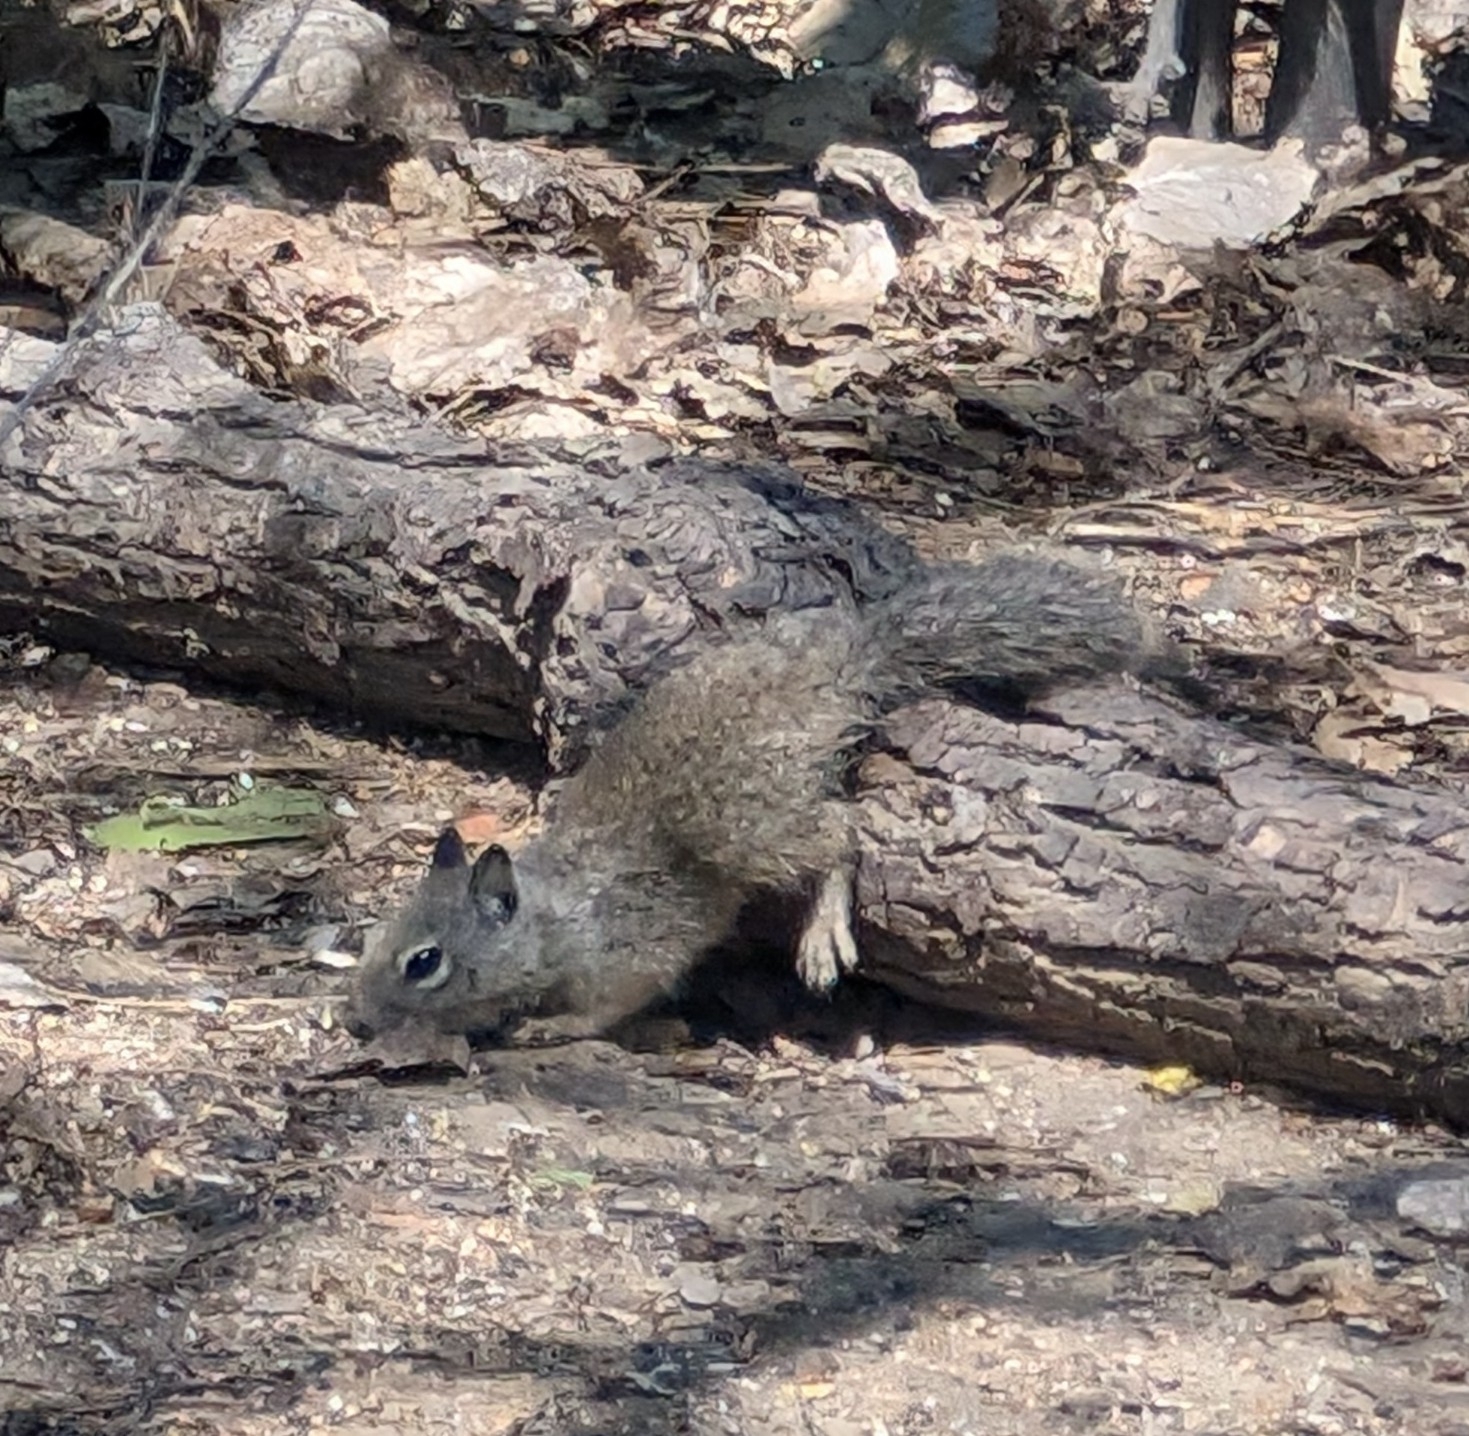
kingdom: Animalia
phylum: Chordata
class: Mammalia
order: Rodentia
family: Sciuridae
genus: Otospermophilus
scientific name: Otospermophilus beecheyi
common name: California ground squirrel
